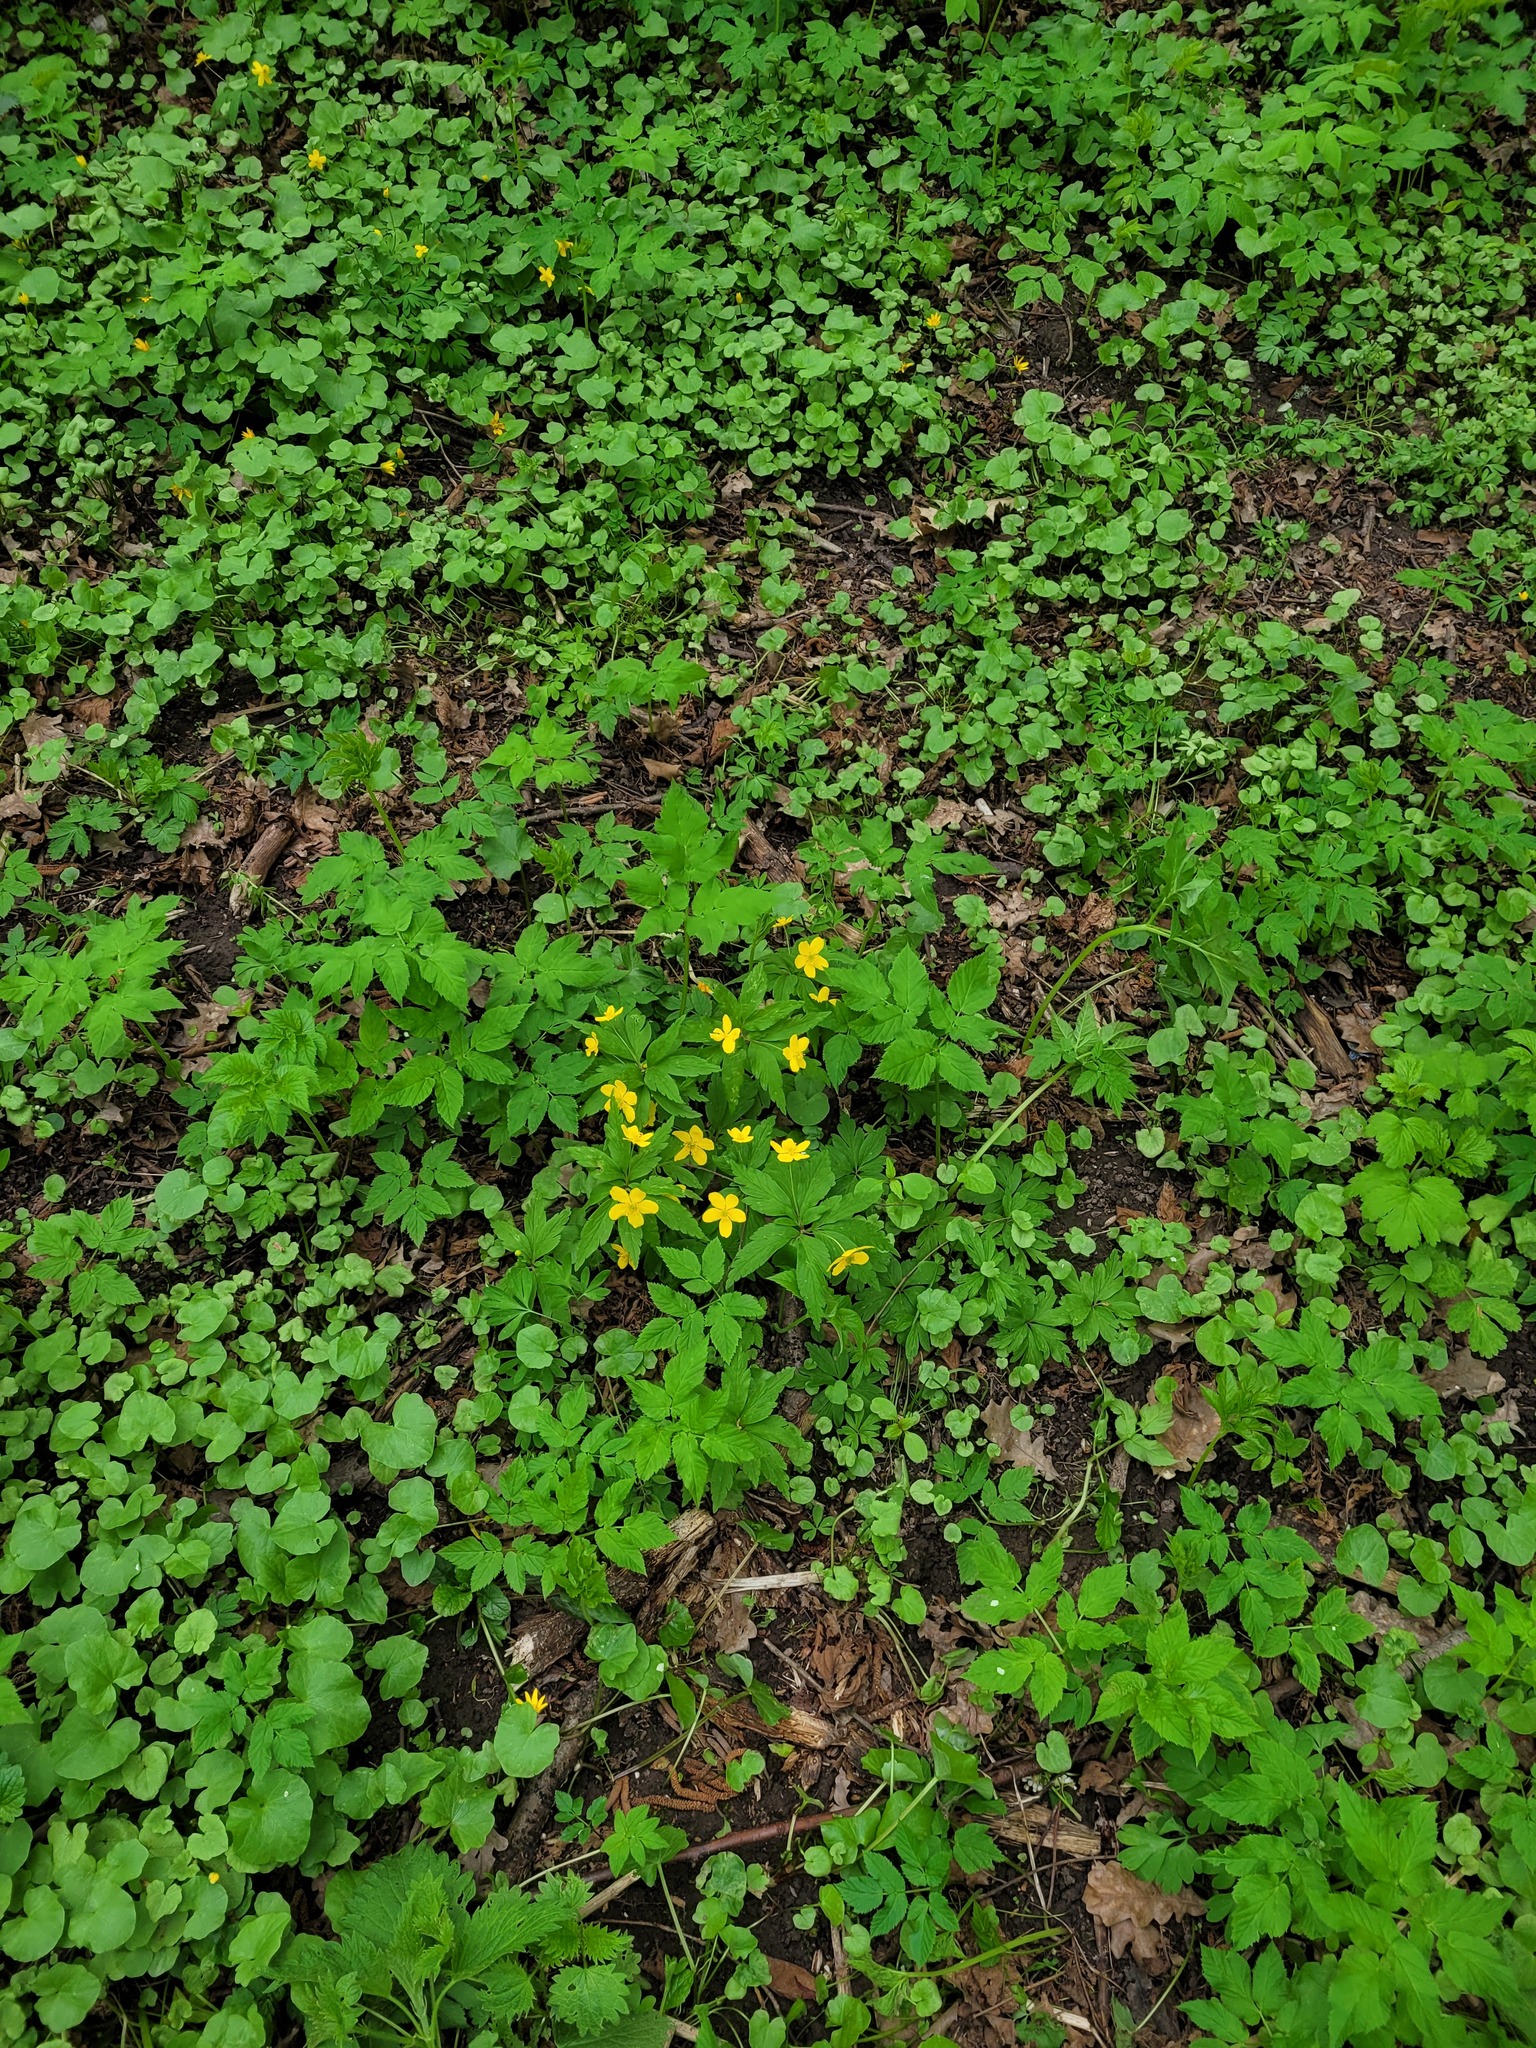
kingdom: Plantae
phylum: Tracheophyta
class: Magnoliopsida
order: Ranunculales
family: Ranunculaceae
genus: Anemone
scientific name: Anemone ranunculoides
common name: Yellow anemone
